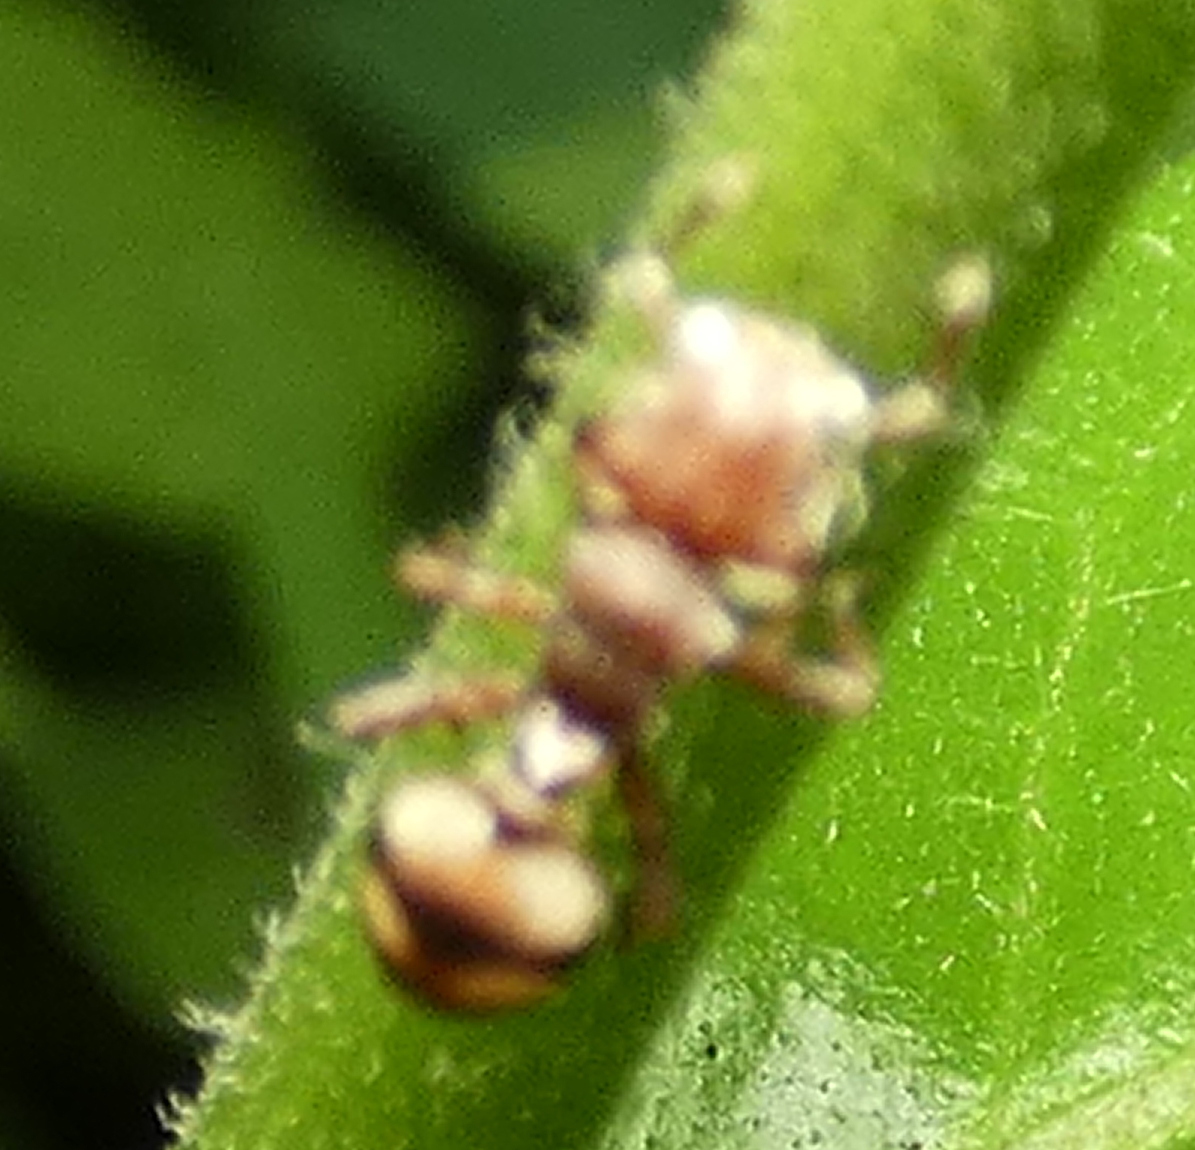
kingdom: Animalia
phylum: Arthropoda
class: Insecta
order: Hymenoptera
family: Formicidae
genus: Cephalotes
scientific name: Cephalotes umbraculatus
